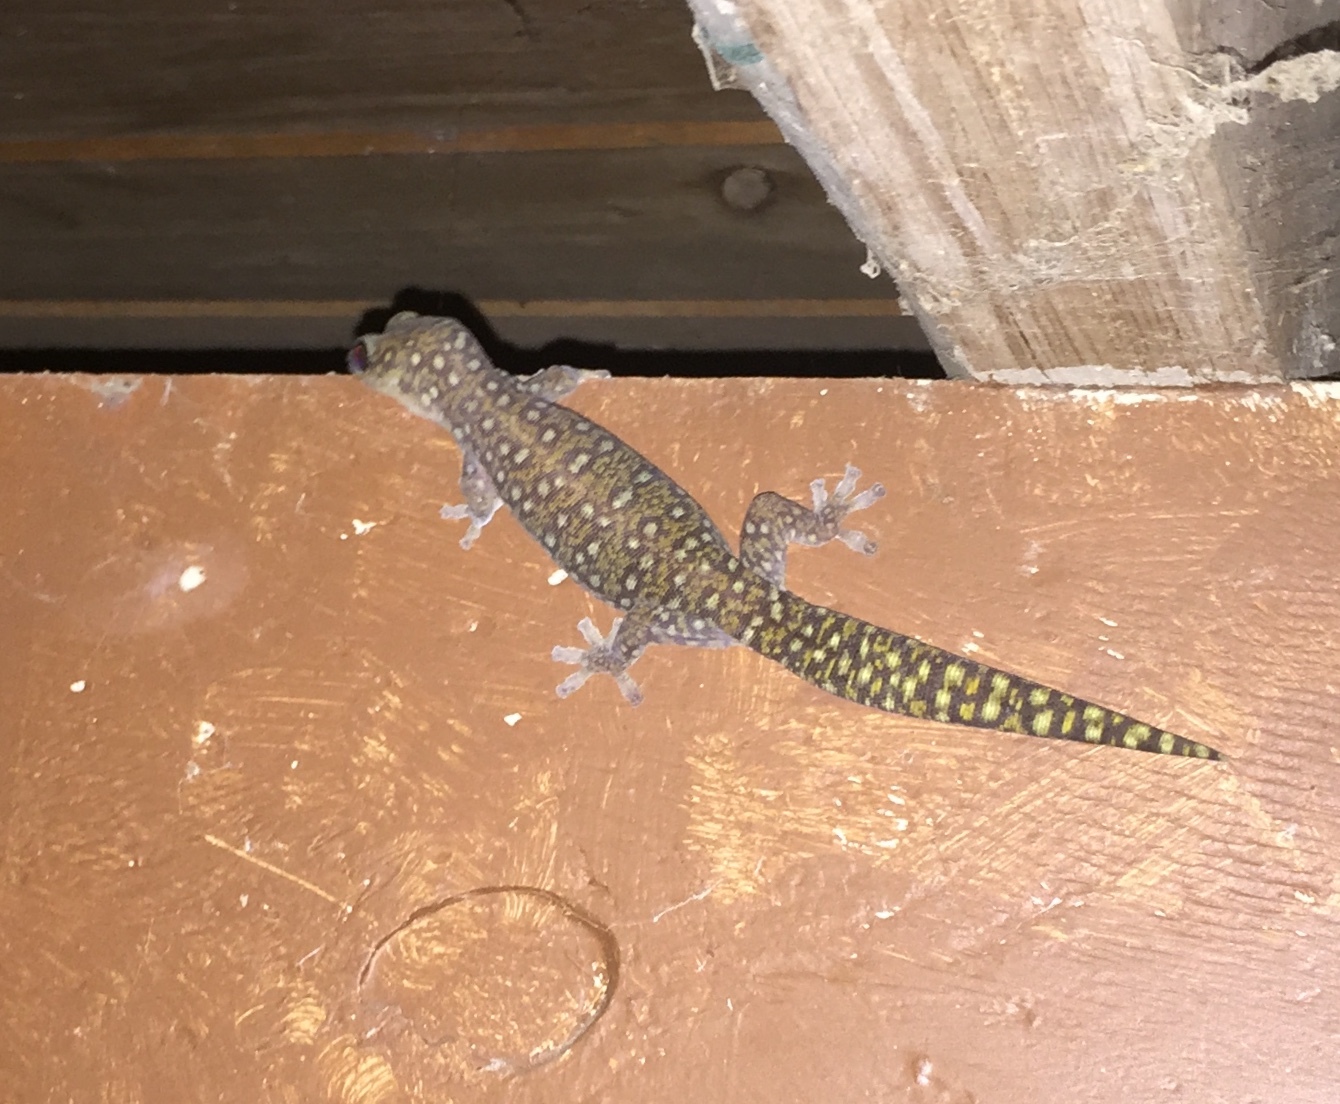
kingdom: Animalia
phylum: Chordata
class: Squamata
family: Diplodactylidae
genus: Oedura
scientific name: Oedura tryoni
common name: Southern spotted velvet gecko
